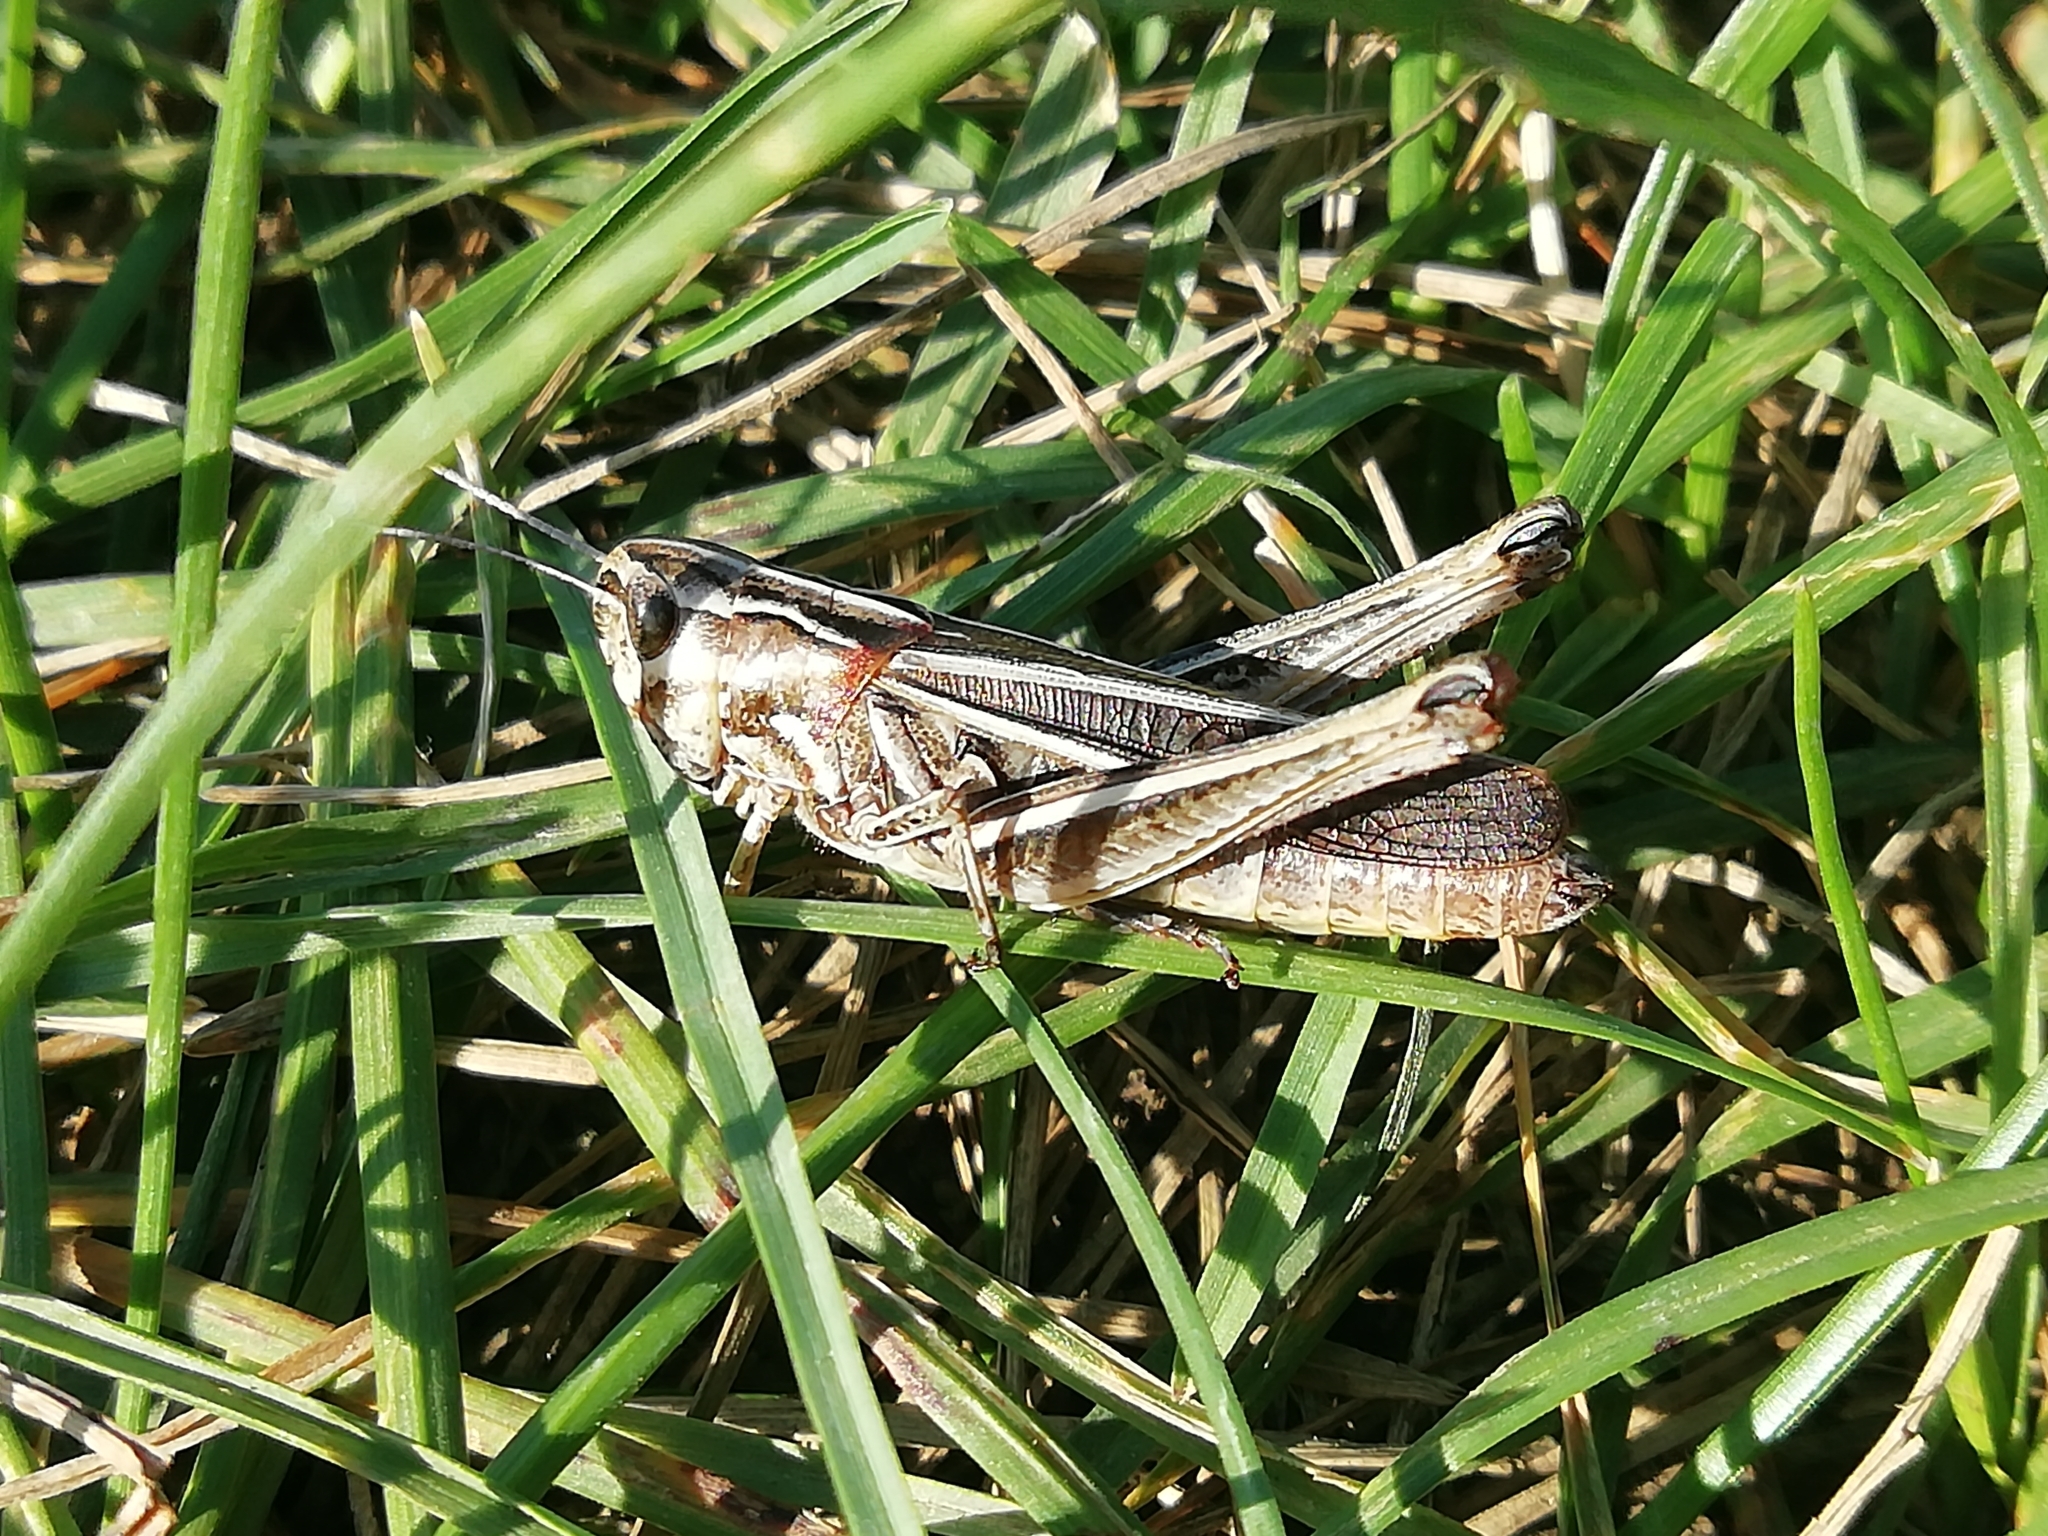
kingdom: Animalia
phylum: Arthropoda
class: Insecta
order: Orthoptera
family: Acrididae
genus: Stenobothrus
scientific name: Stenobothrus lineatus
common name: Stripe-winged grasshopper
